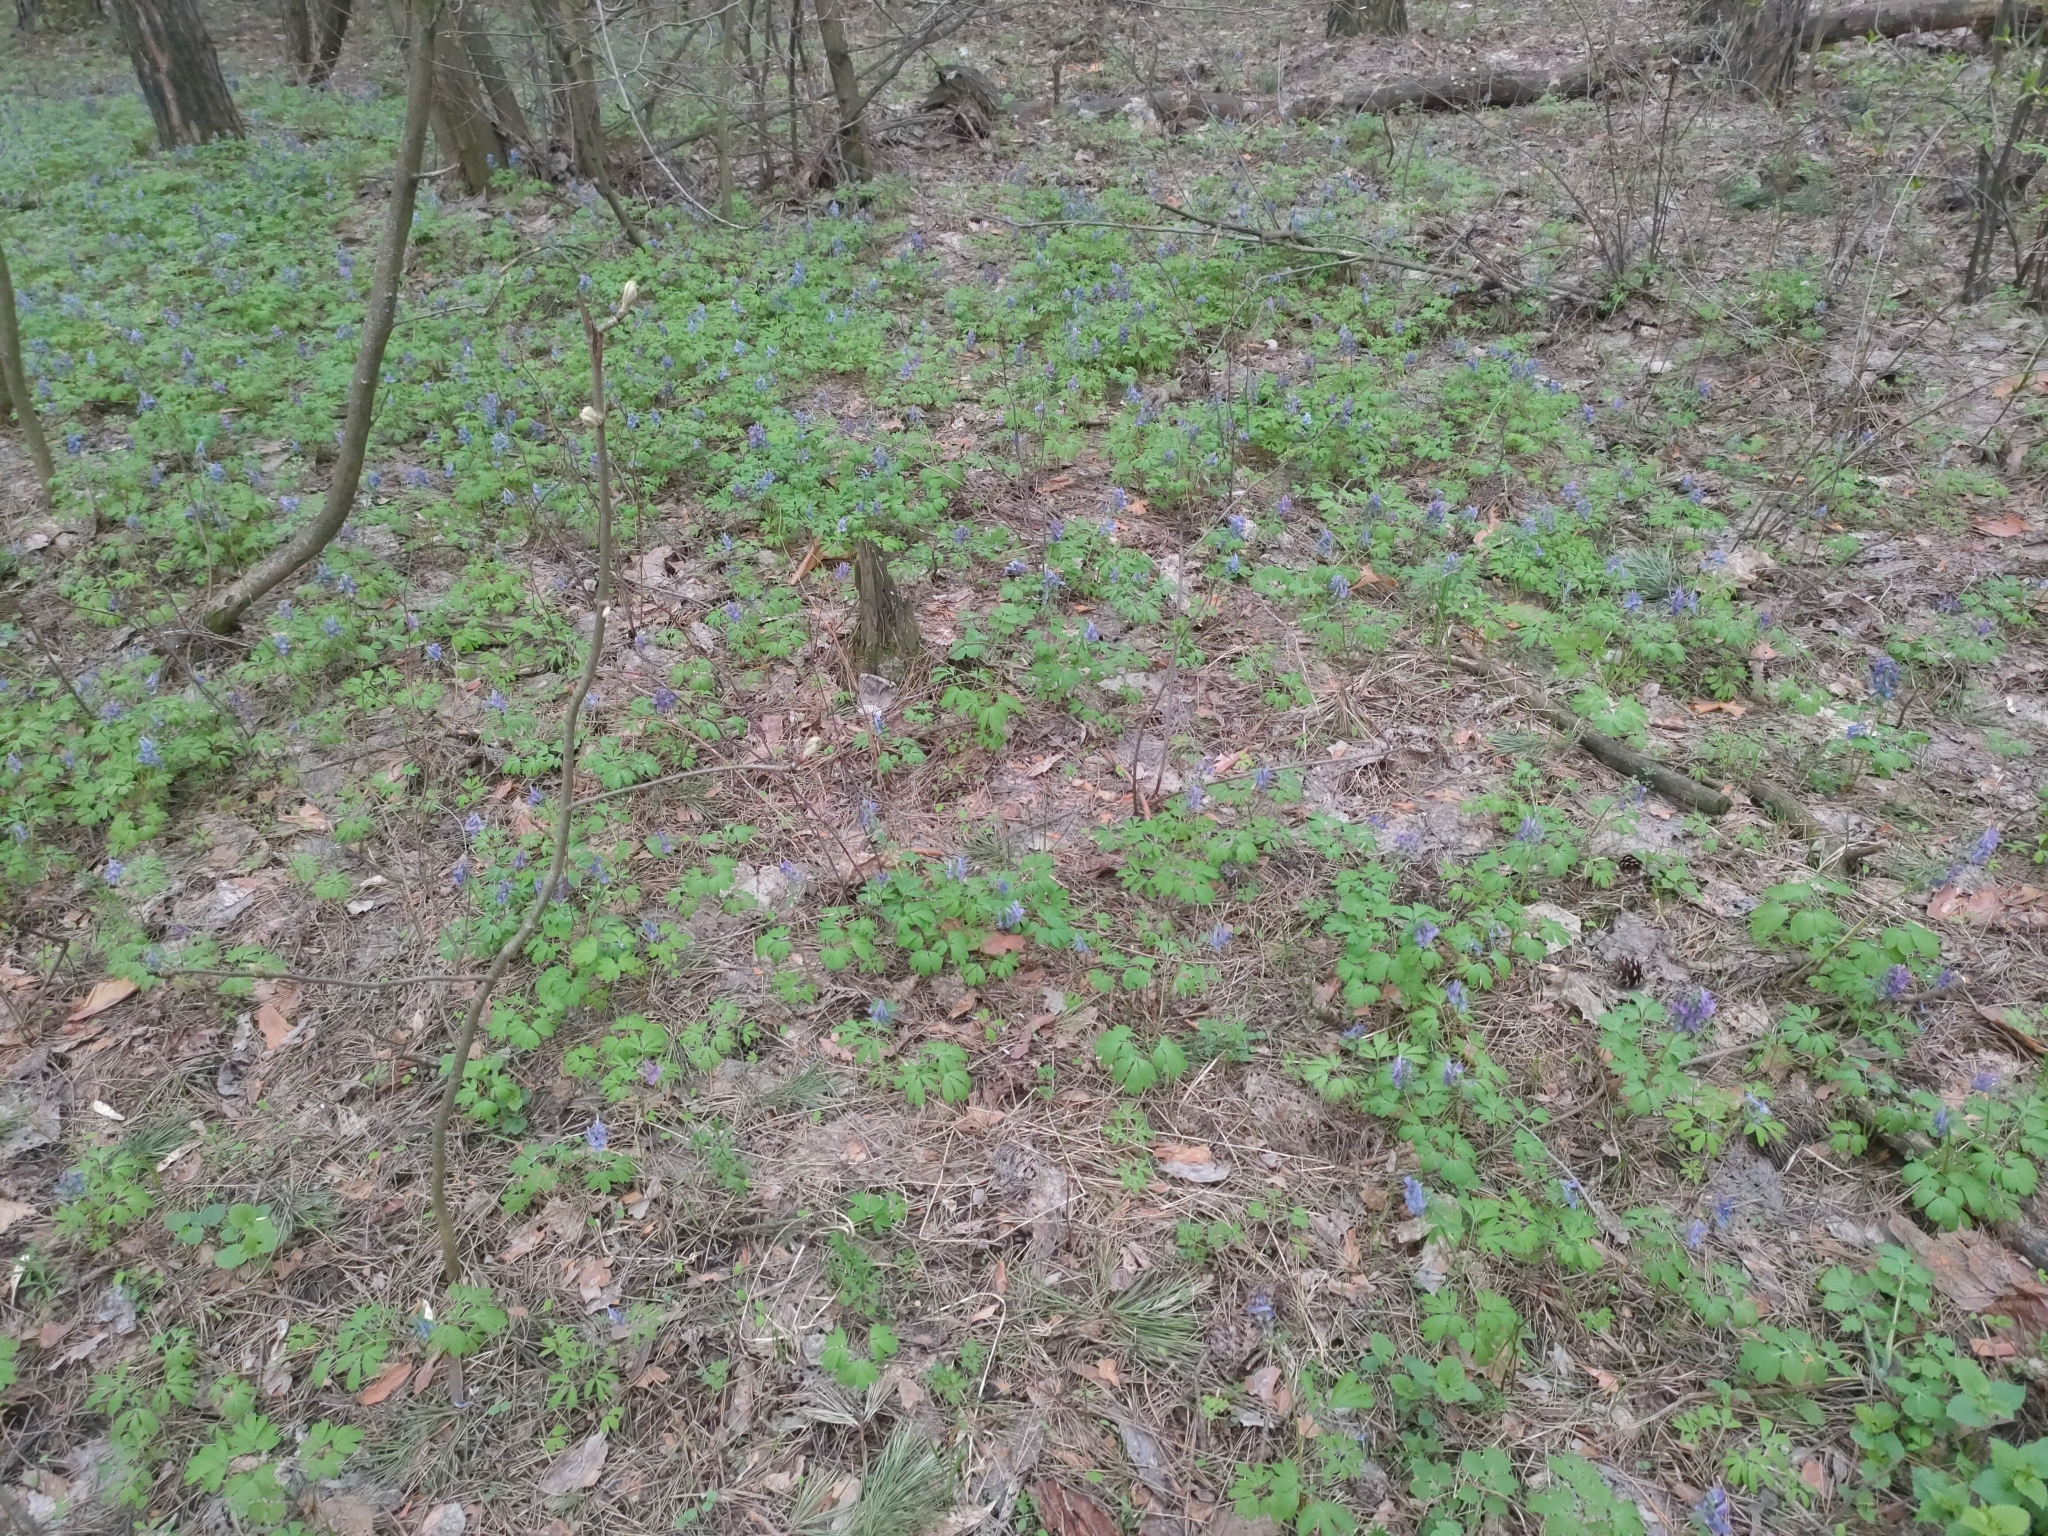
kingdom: Plantae
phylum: Tracheophyta
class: Magnoliopsida
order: Ranunculales
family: Papaveraceae
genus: Corydalis
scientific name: Corydalis solida
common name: Bird-in-a-bush
